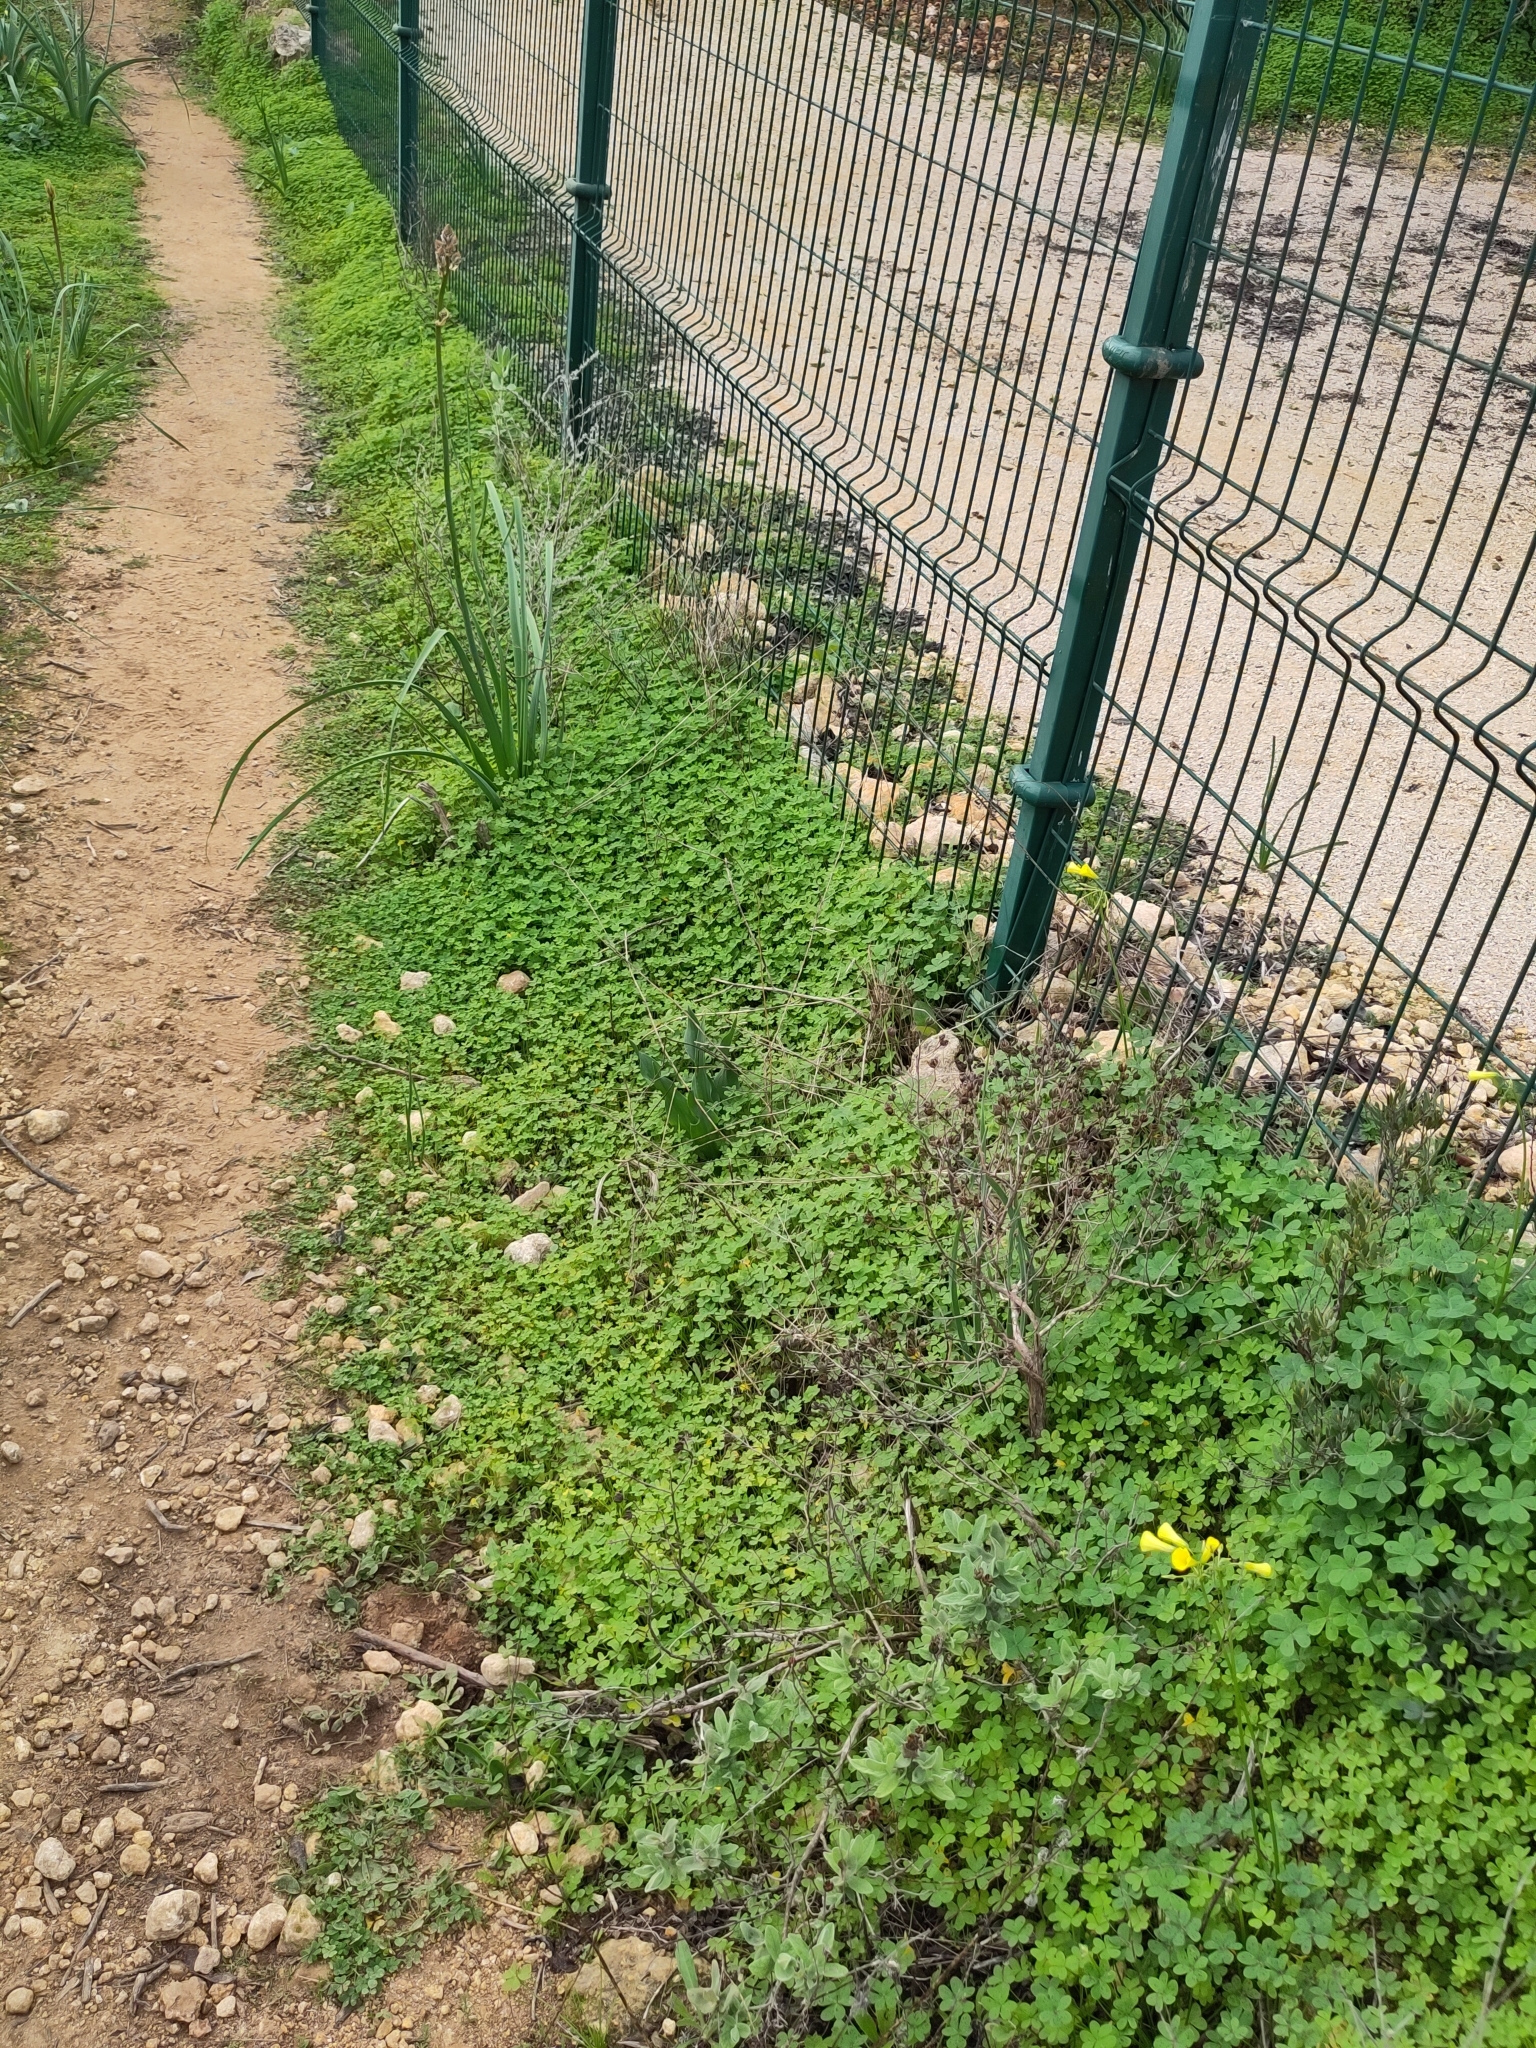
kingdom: Plantae
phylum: Tracheophyta
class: Magnoliopsida
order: Oxalidales
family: Oxalidaceae
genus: Oxalis
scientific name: Oxalis pes-caprae
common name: Bermuda-buttercup
